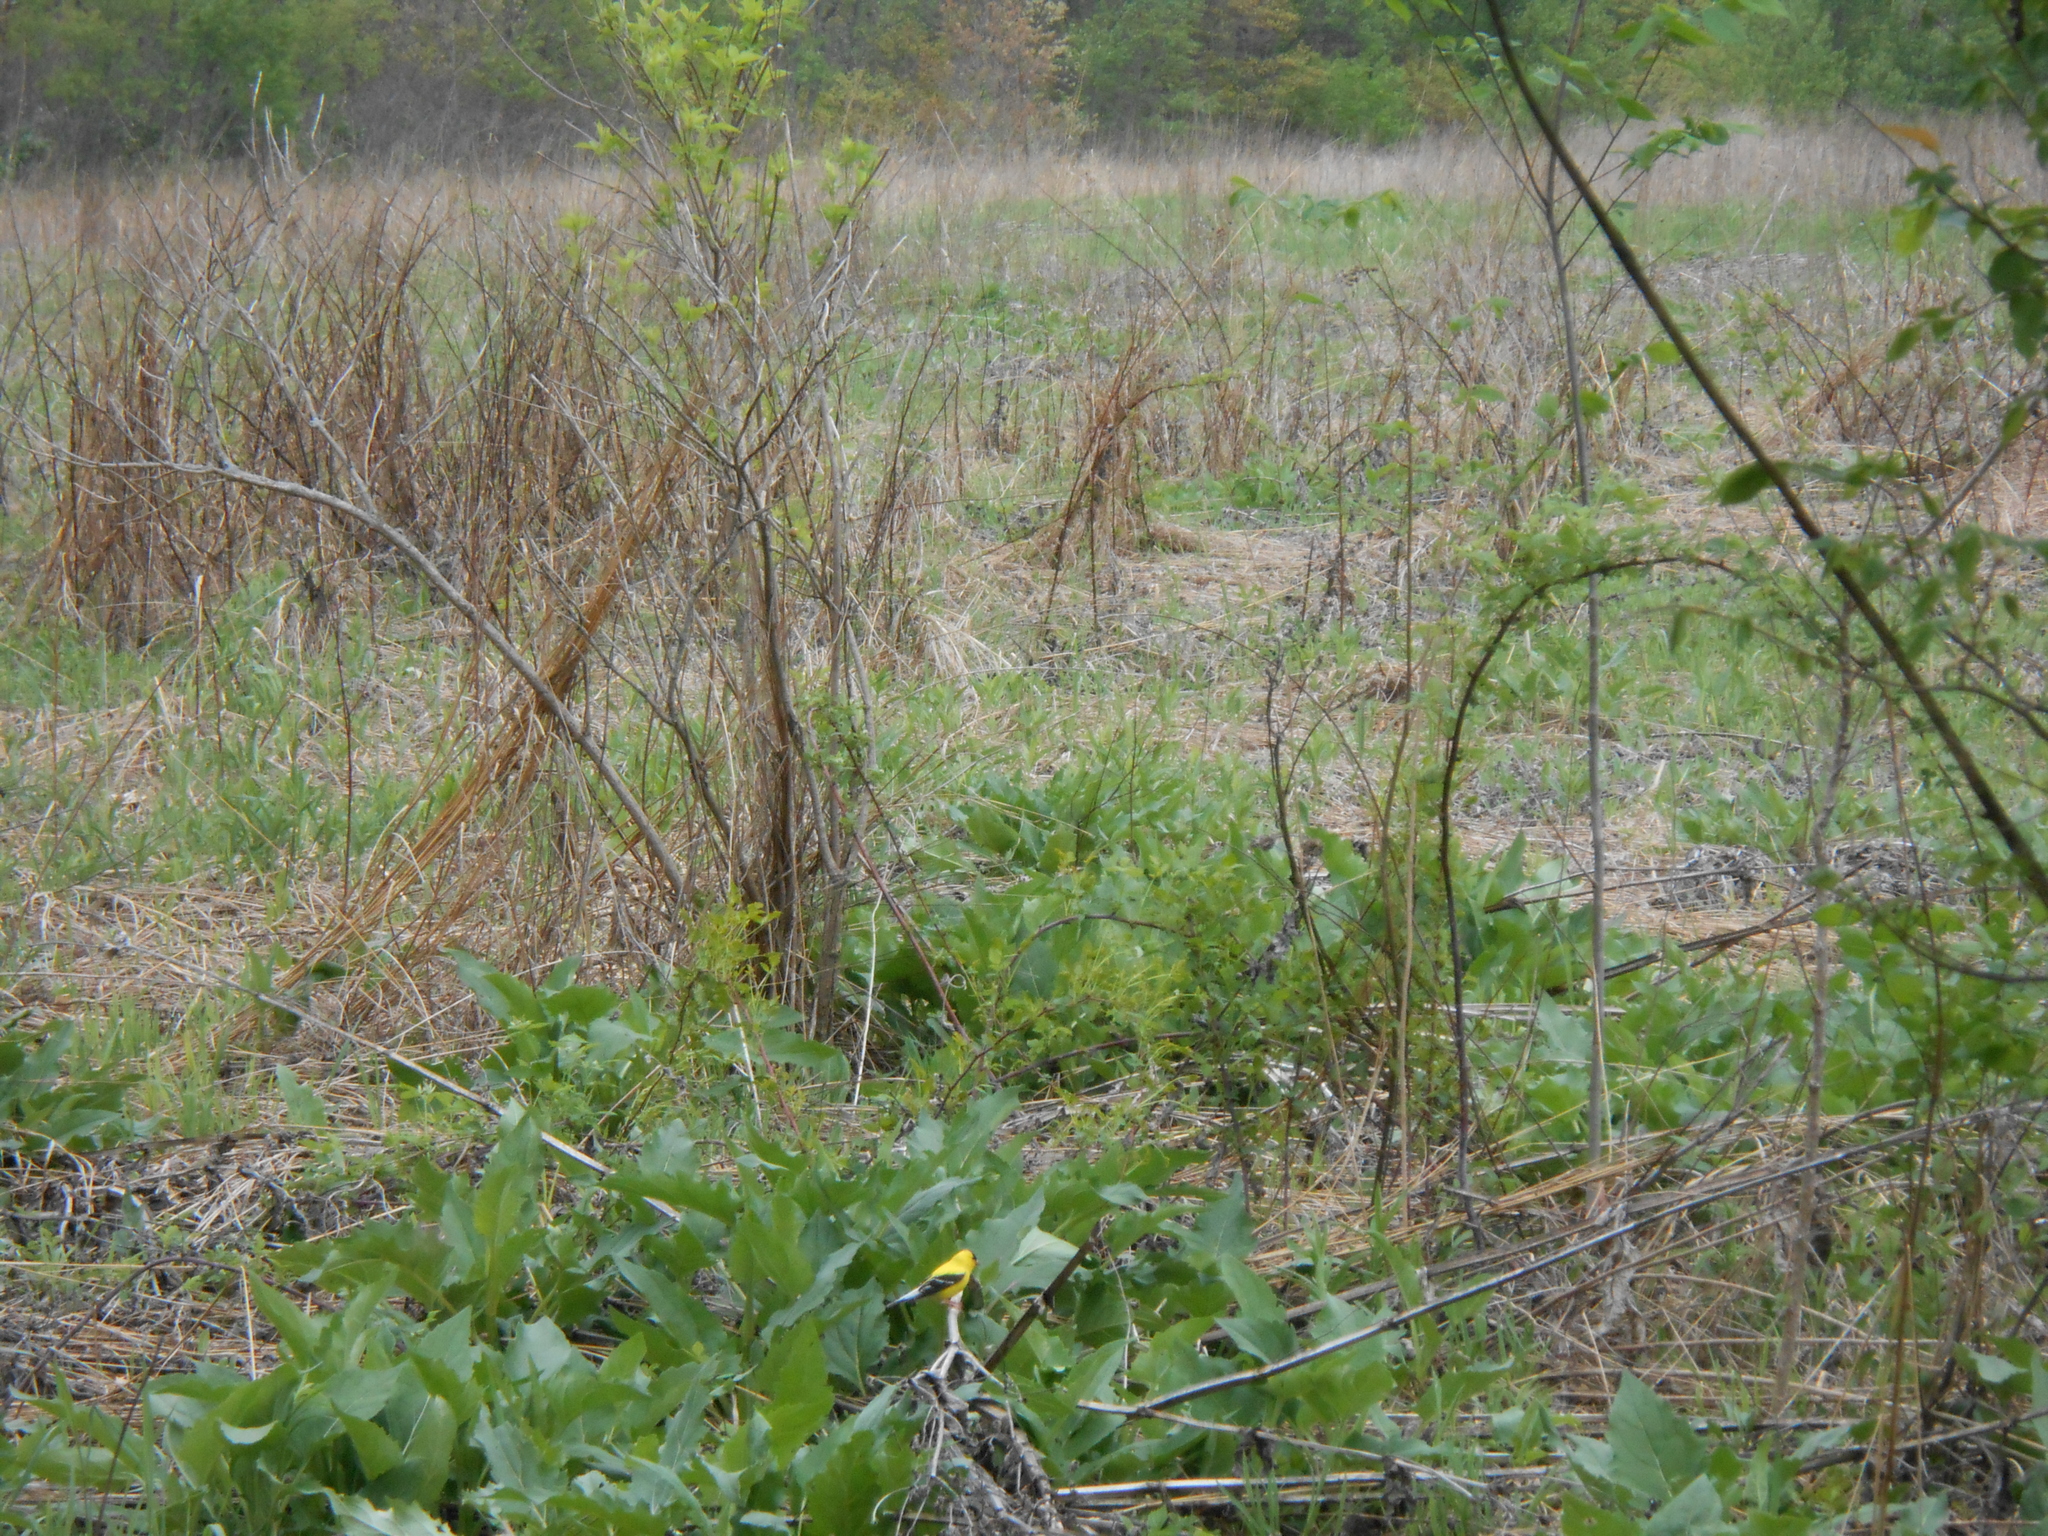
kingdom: Animalia
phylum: Chordata
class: Aves
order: Passeriformes
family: Fringillidae
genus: Spinus
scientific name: Spinus tristis
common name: American goldfinch
